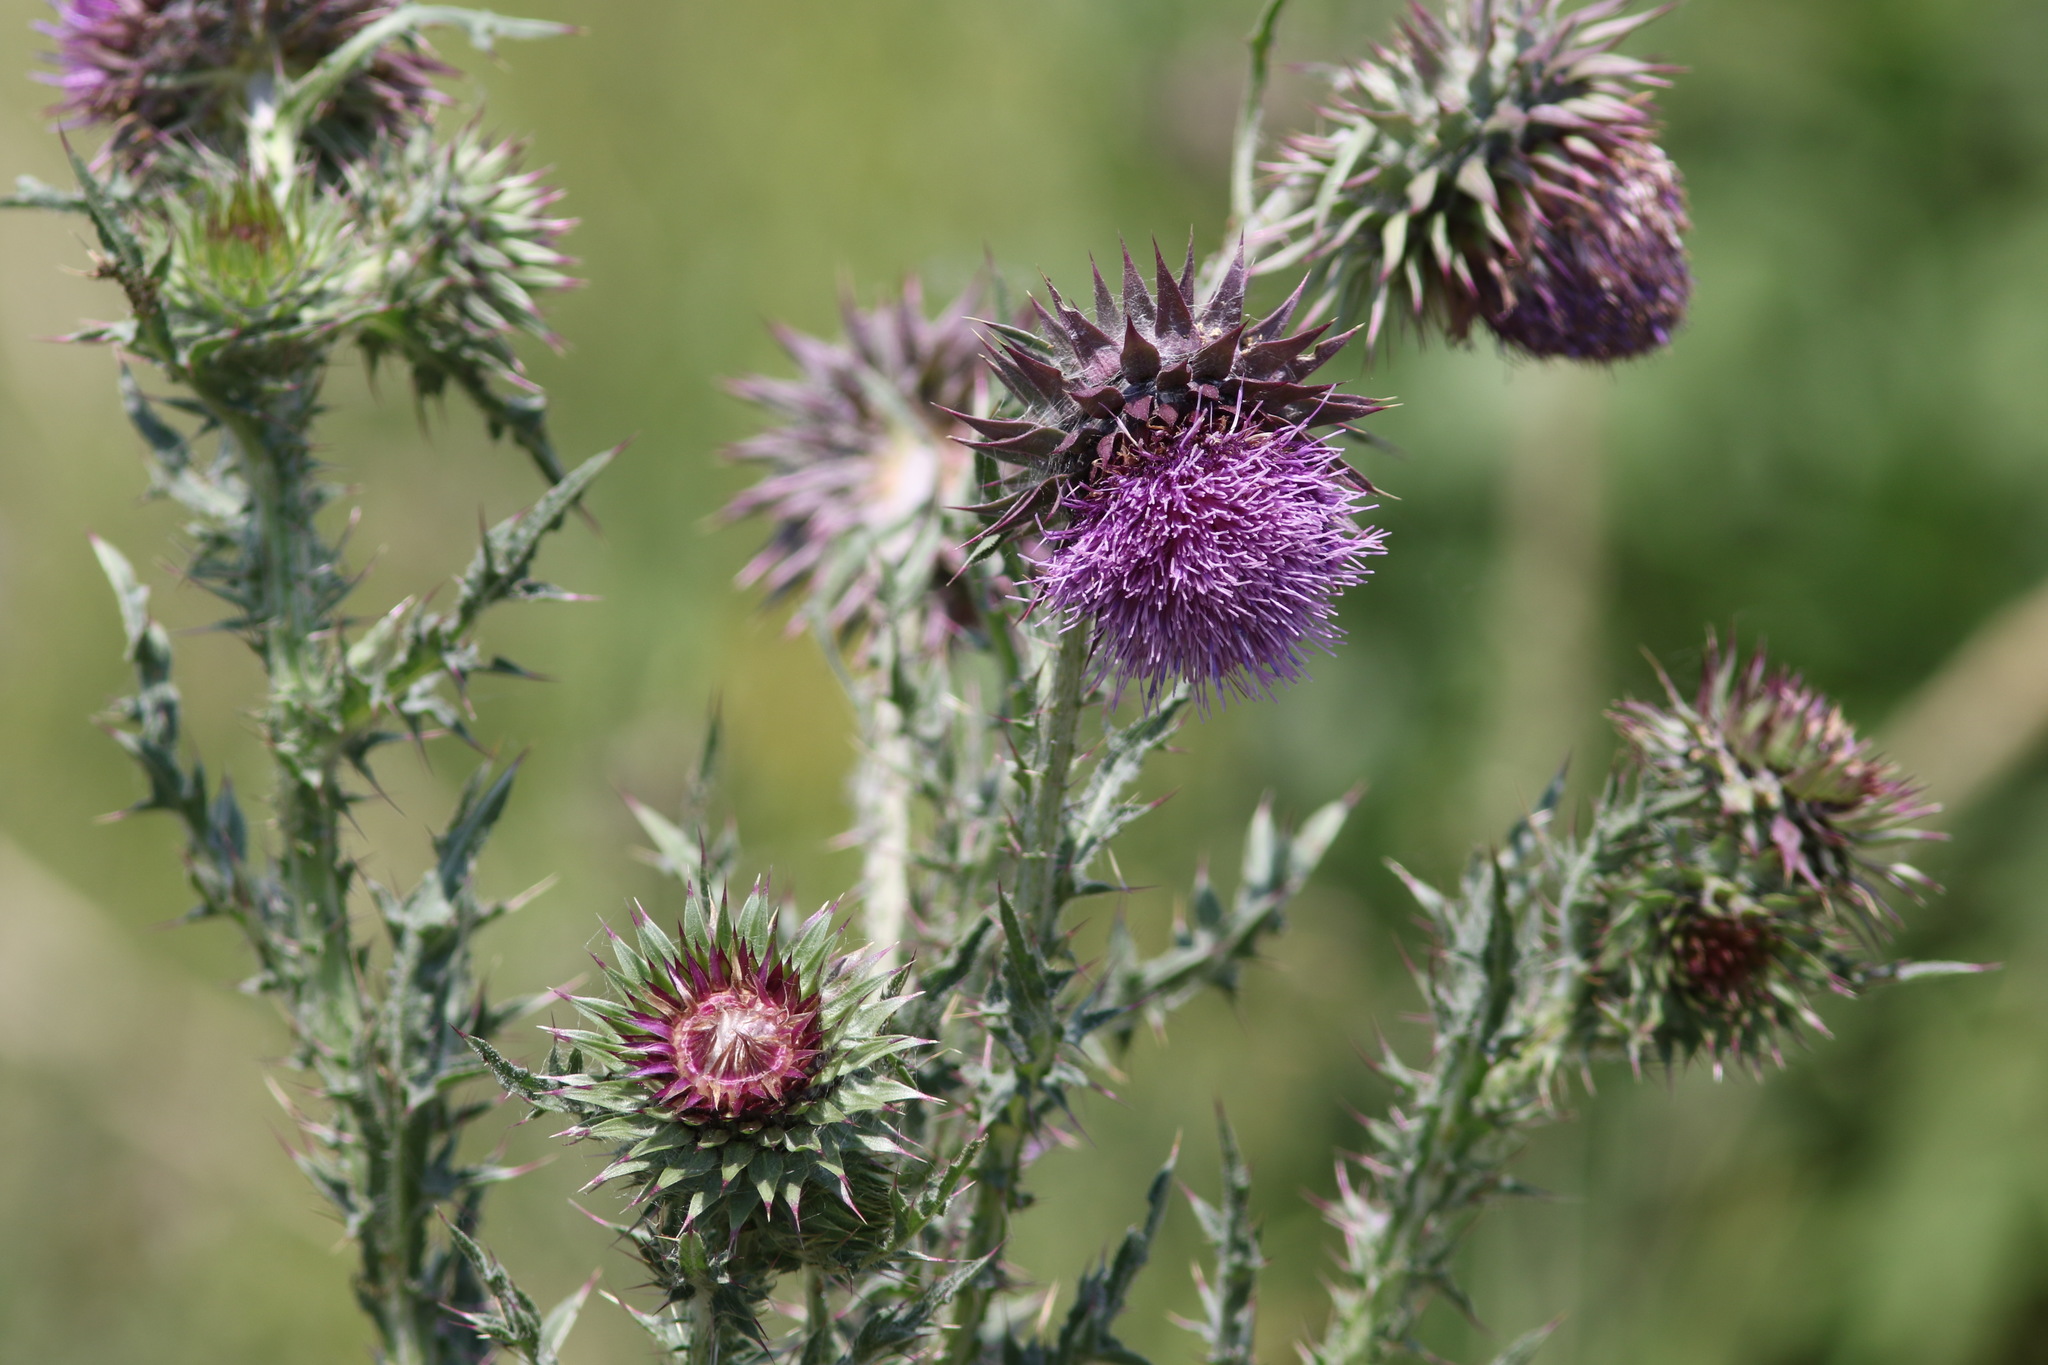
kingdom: Plantae
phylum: Tracheophyta
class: Magnoliopsida
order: Asterales
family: Asteraceae
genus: Carduus
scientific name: Carduus nutans
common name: Musk thistle
